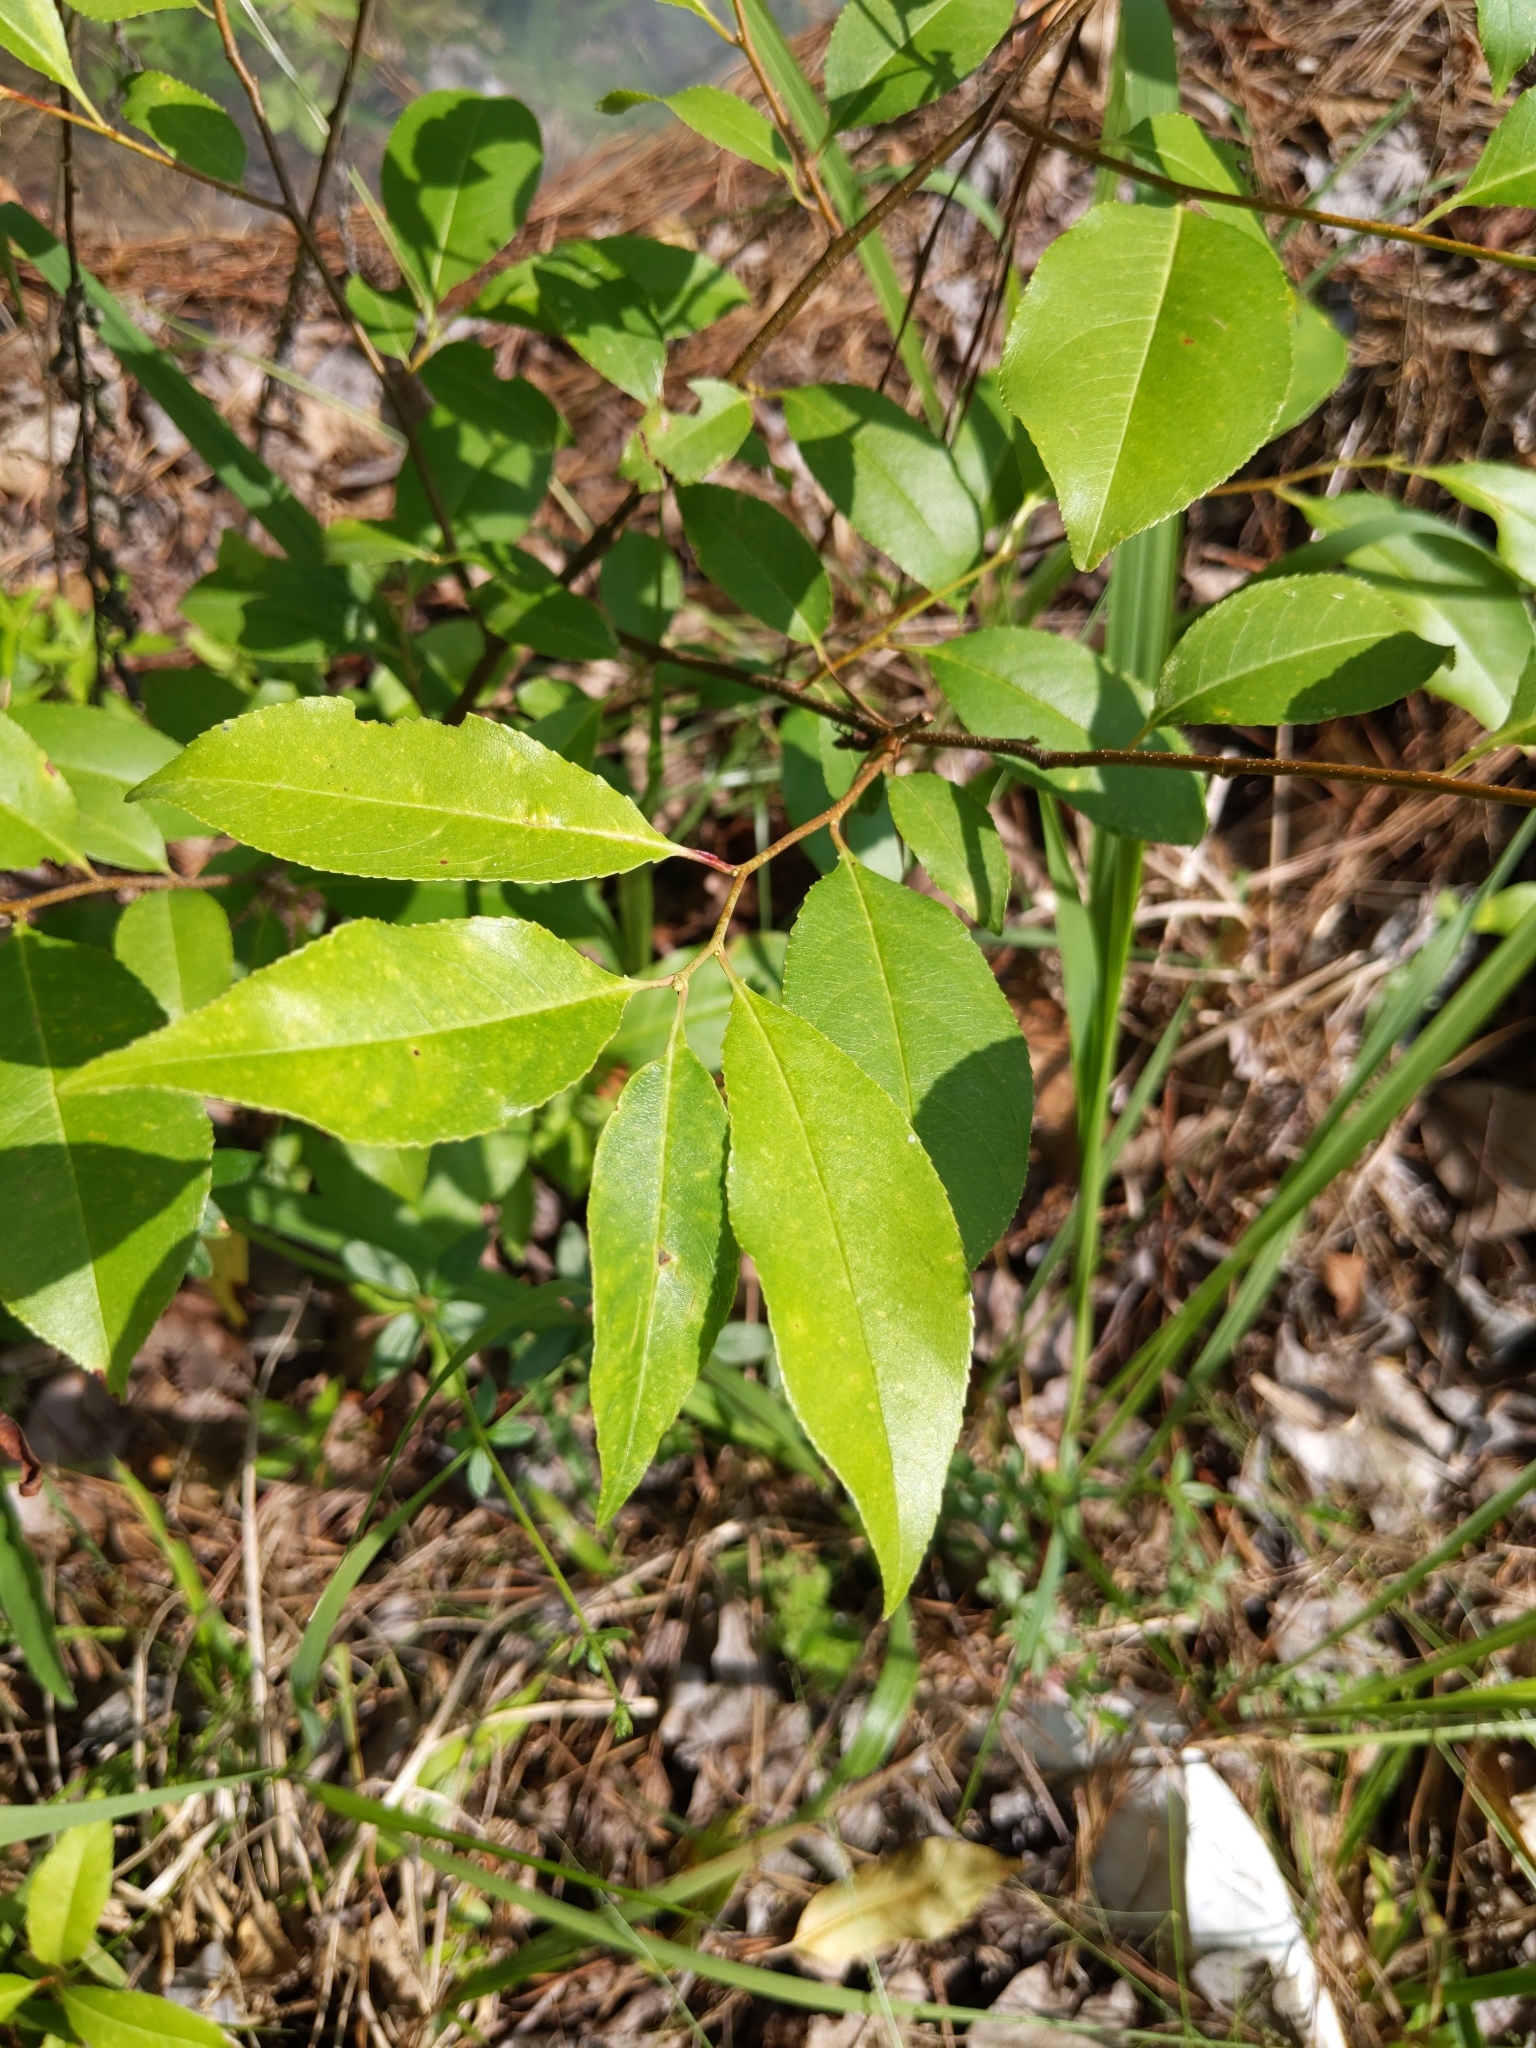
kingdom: Plantae
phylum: Tracheophyta
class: Magnoliopsida
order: Rosales
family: Rosaceae
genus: Prunus
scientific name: Prunus serotina
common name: Black cherry
